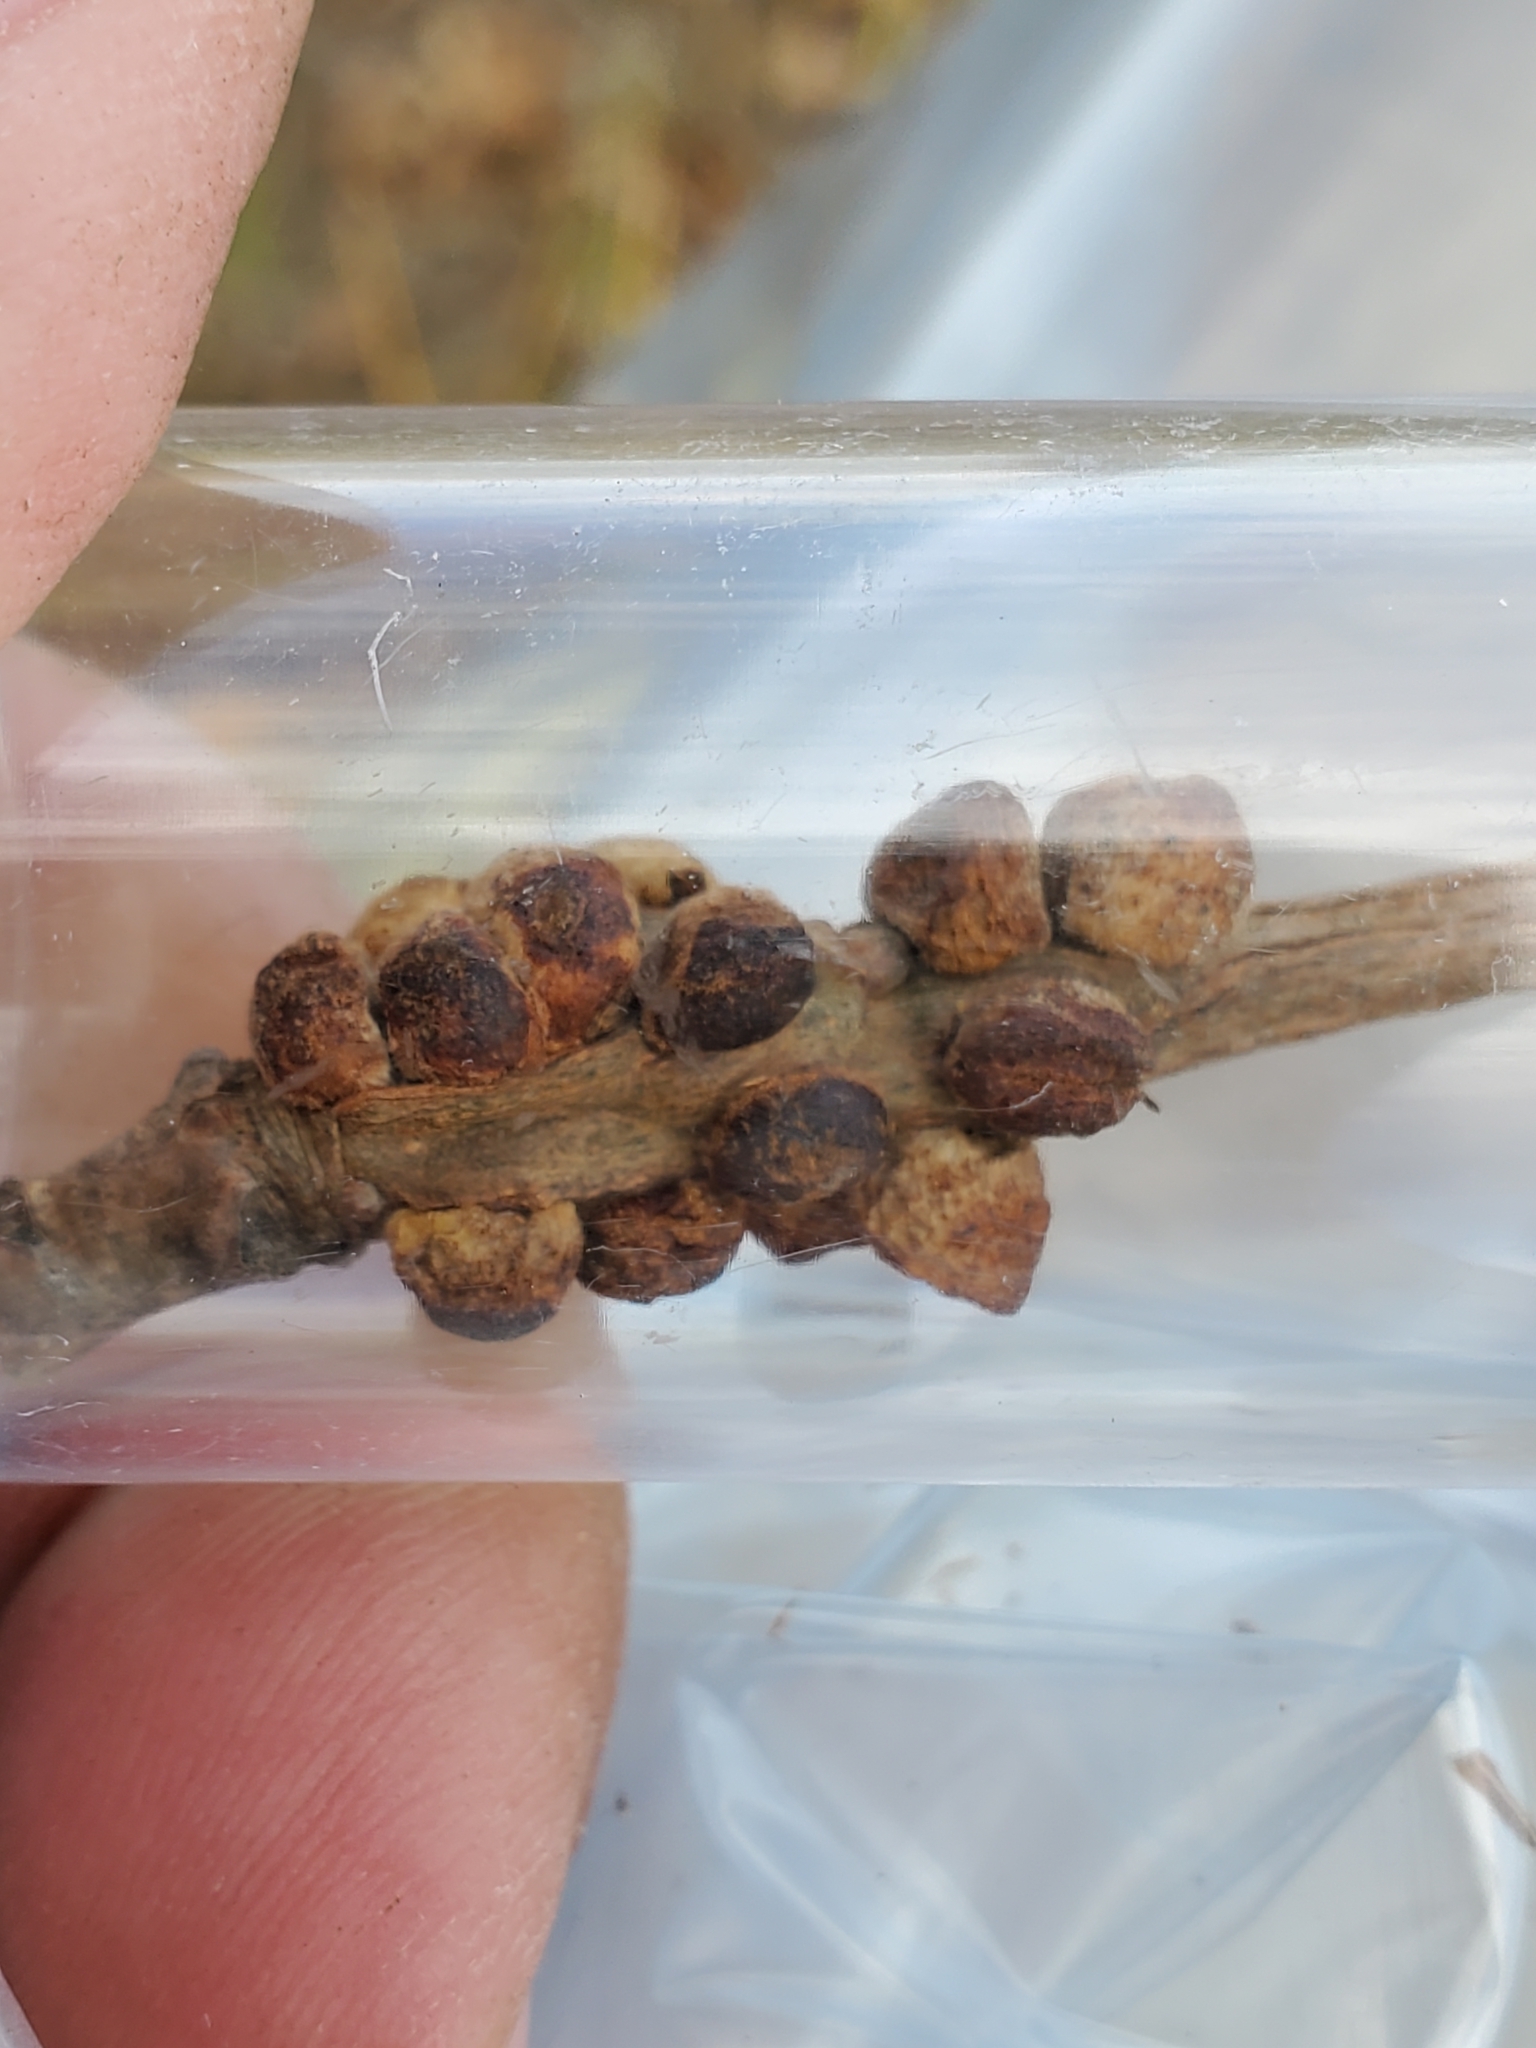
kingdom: Animalia
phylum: Arthropoda
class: Insecta
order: Hymenoptera
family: Cynipidae
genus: Disholcaspis
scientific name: Disholcaspis
